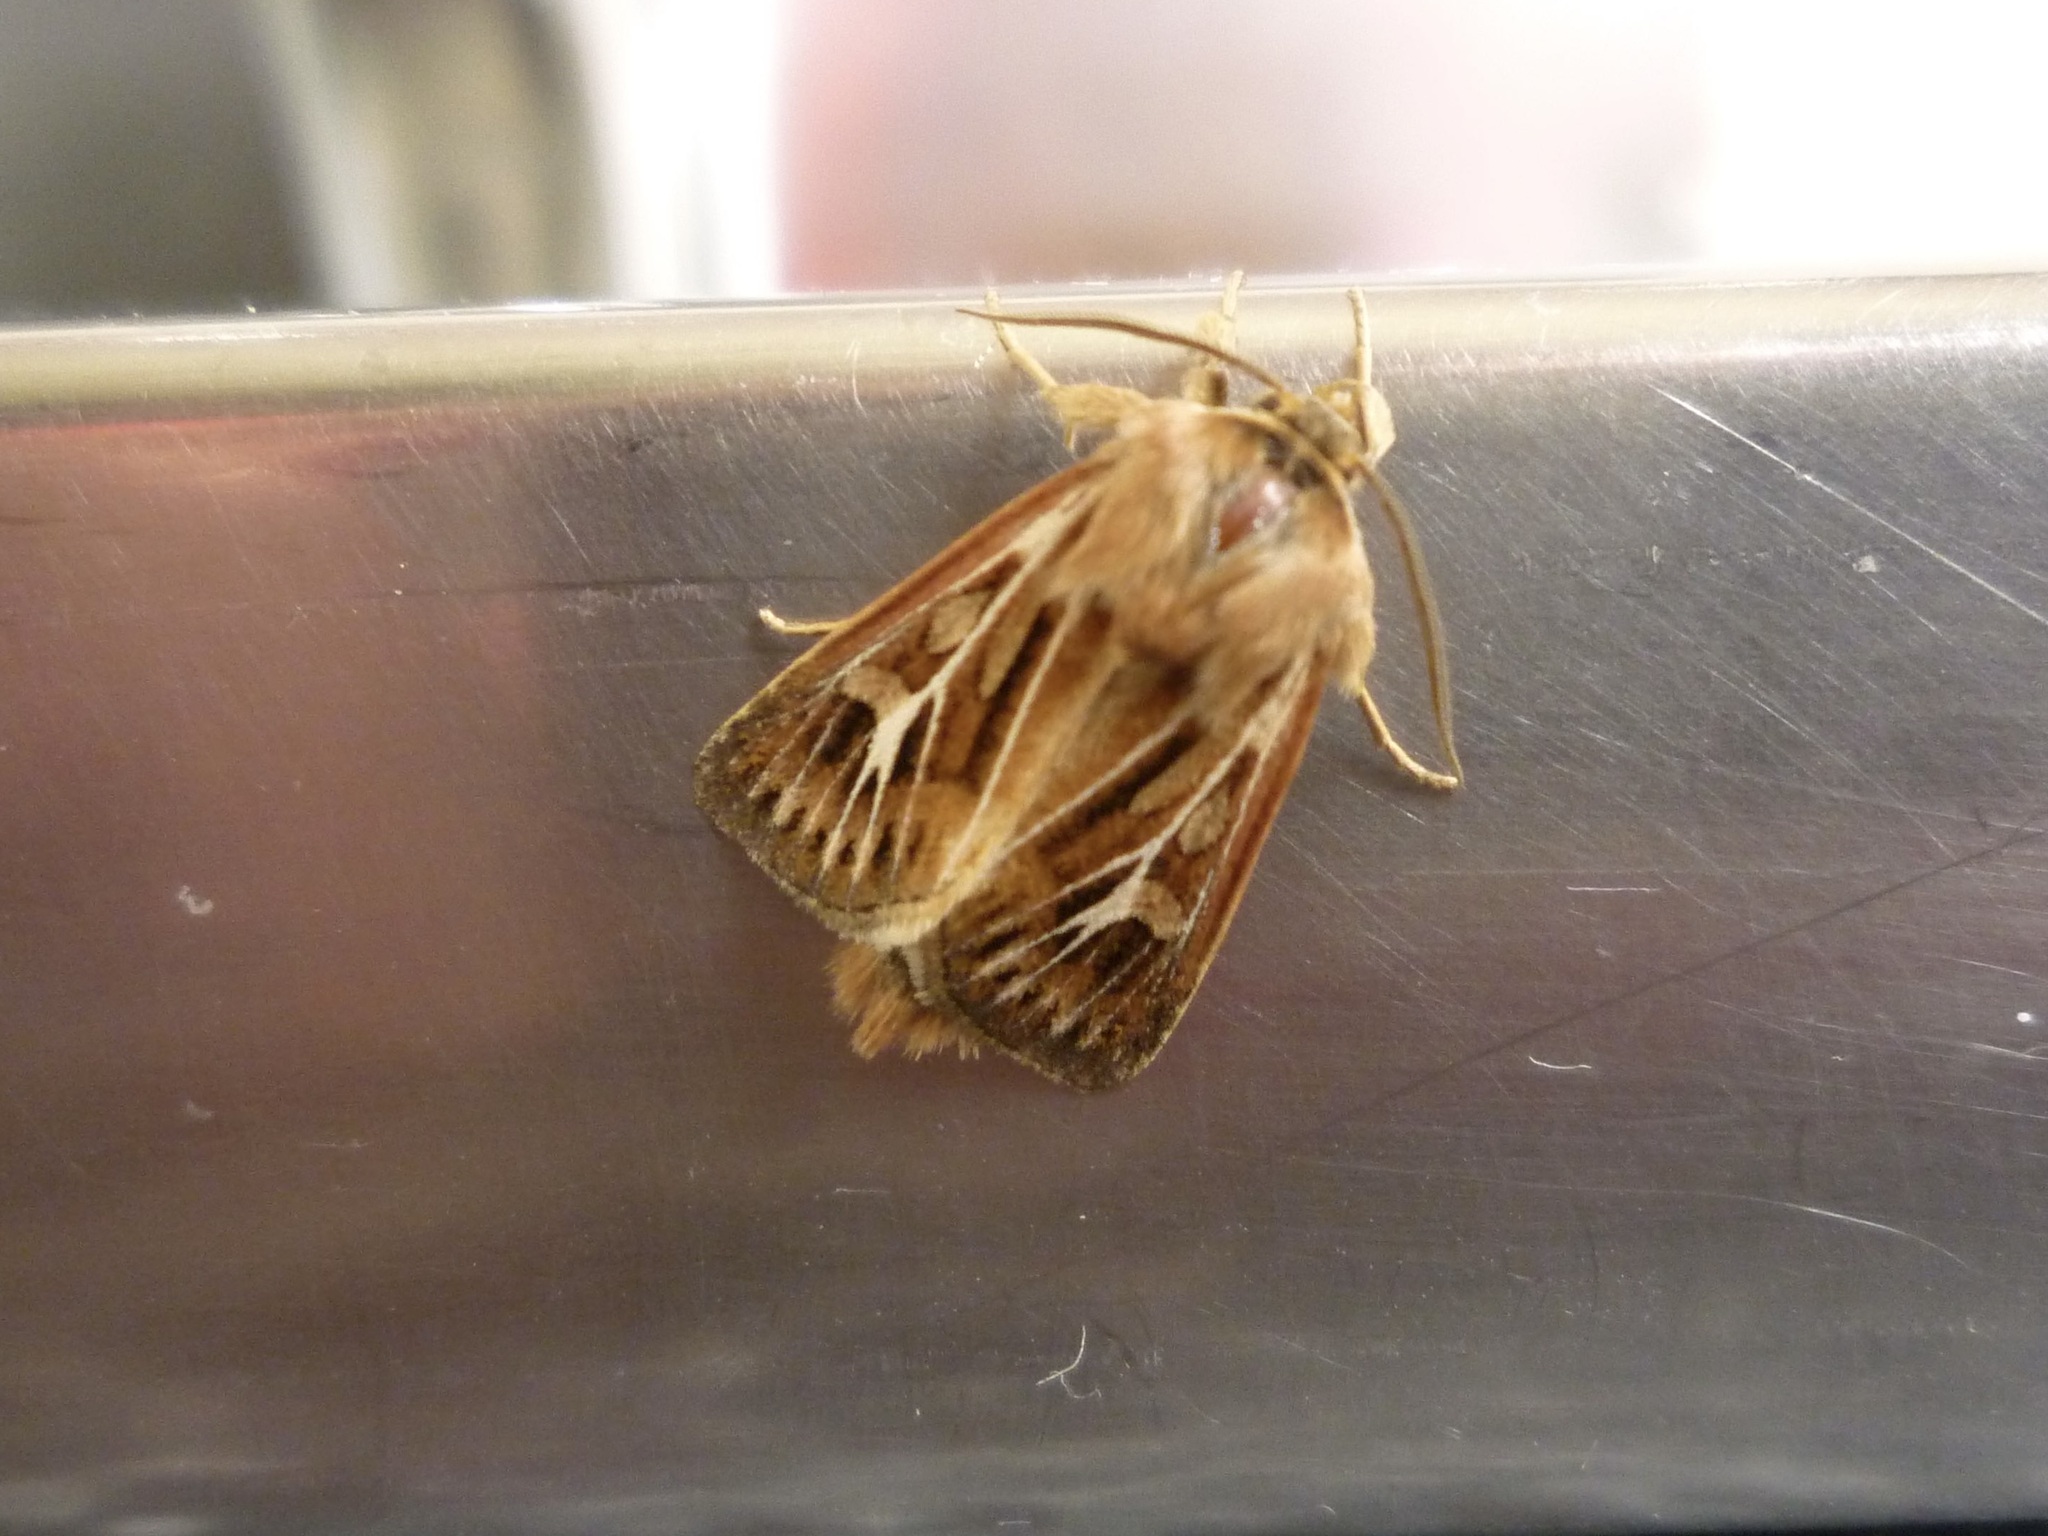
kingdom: Animalia
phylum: Arthropoda
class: Insecta
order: Lepidoptera
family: Noctuidae
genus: Cerapteryx
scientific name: Cerapteryx graminis
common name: Antler moth
